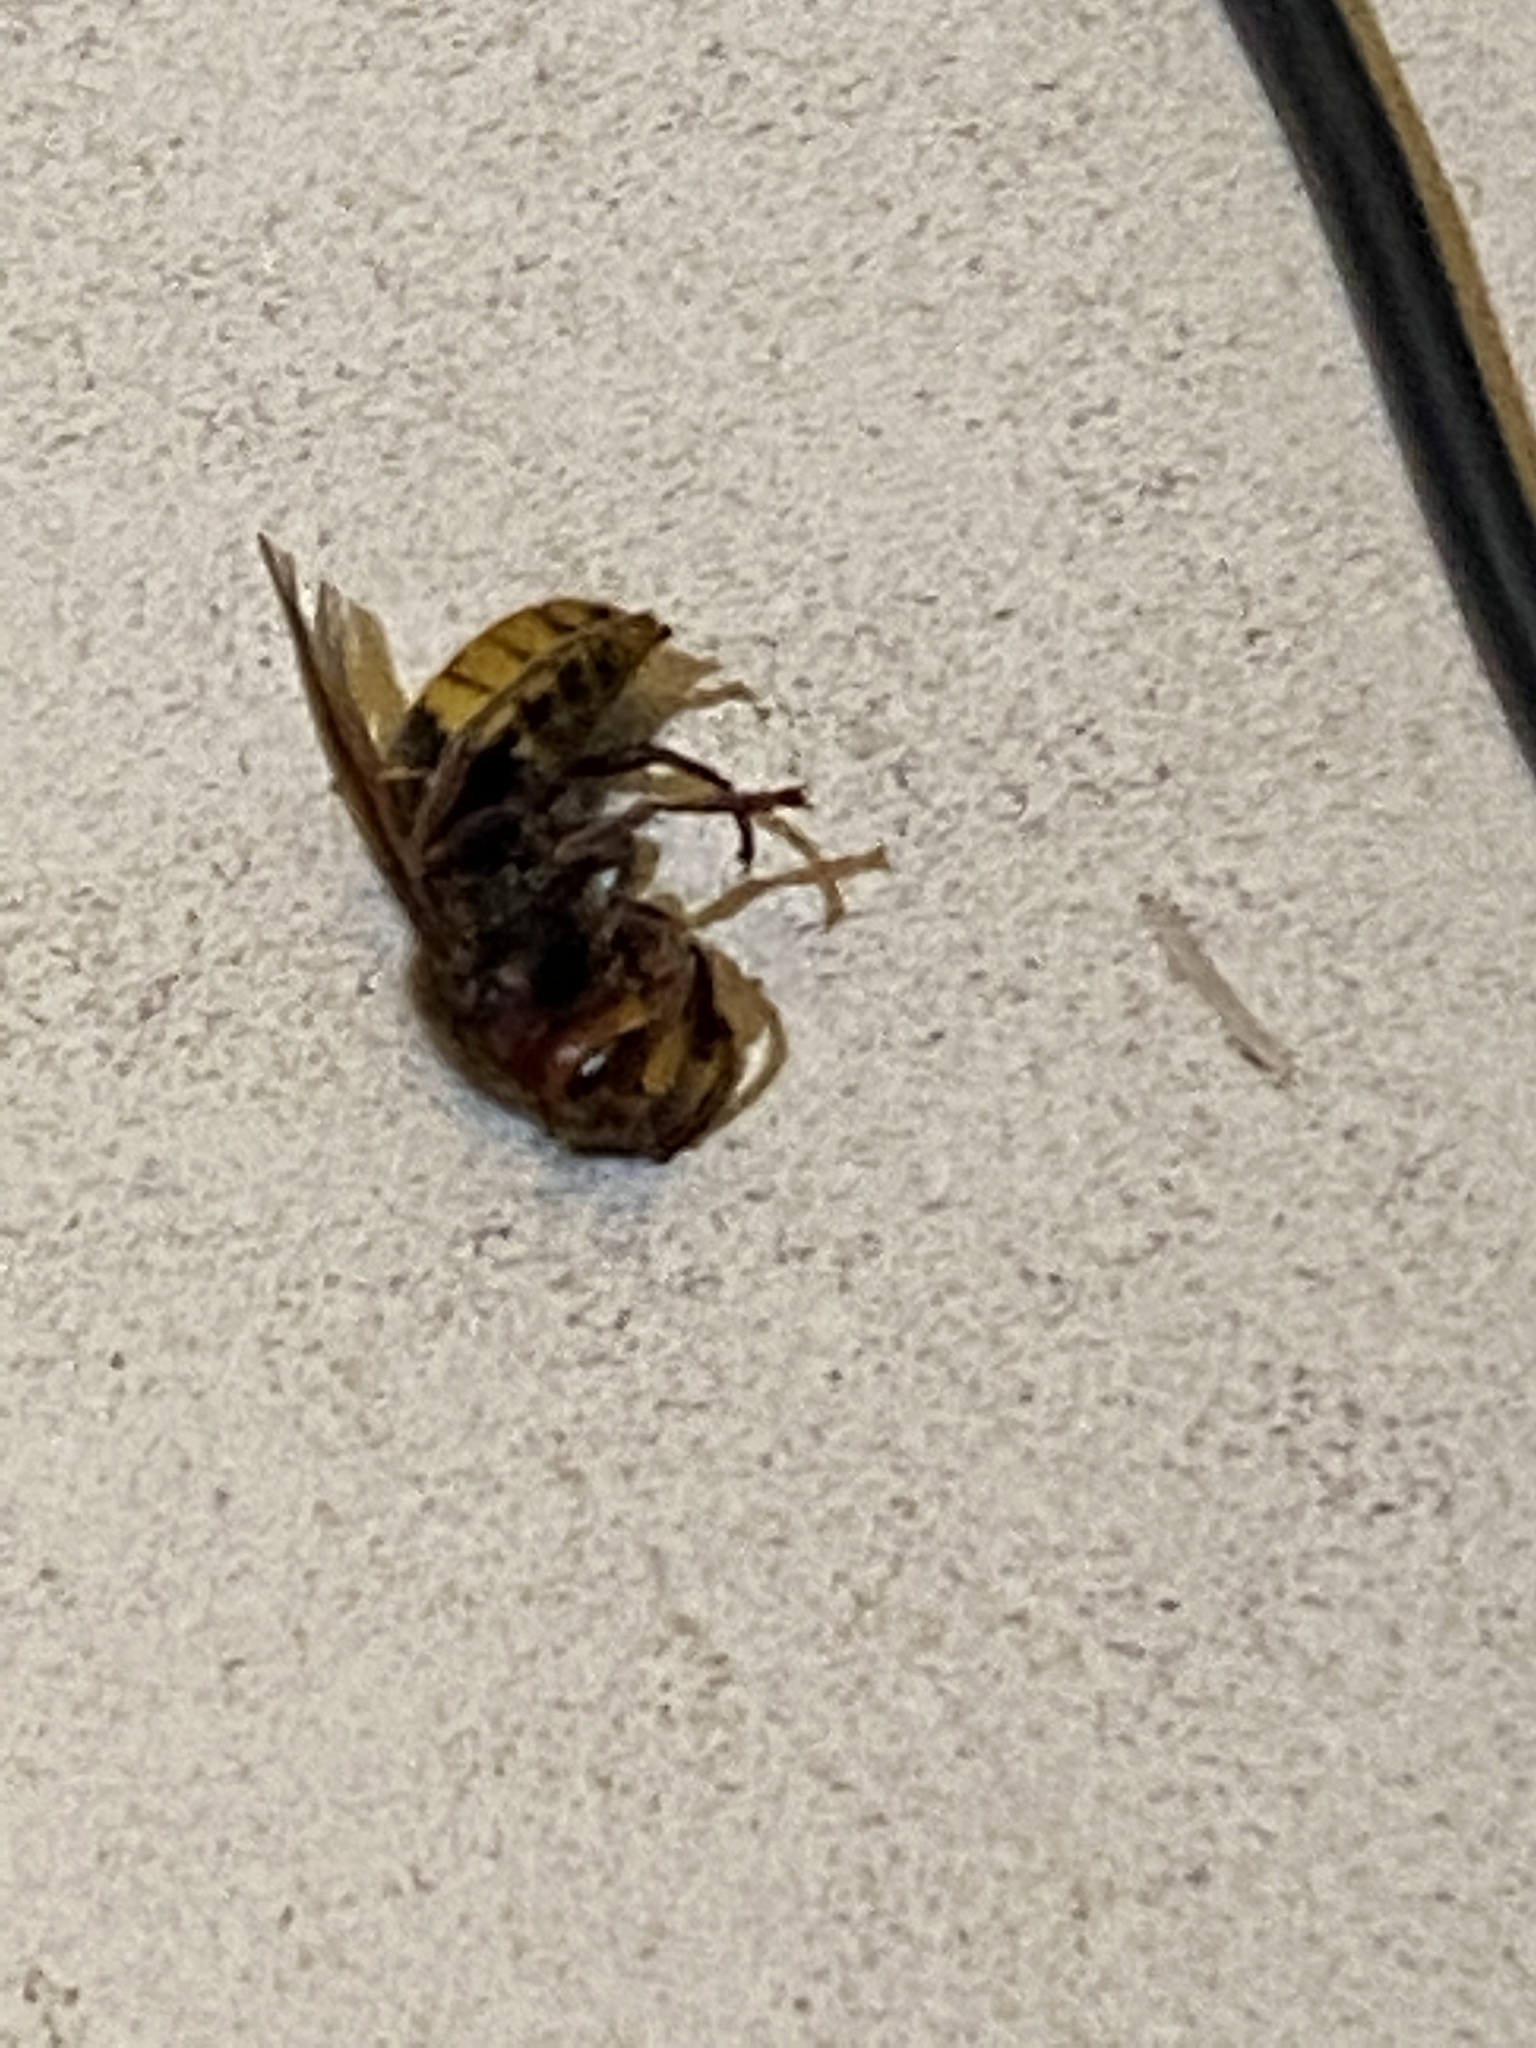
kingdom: Animalia
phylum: Arthropoda
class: Insecta
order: Hymenoptera
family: Vespidae
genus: Vespa
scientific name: Vespa crabro
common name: Hornet
